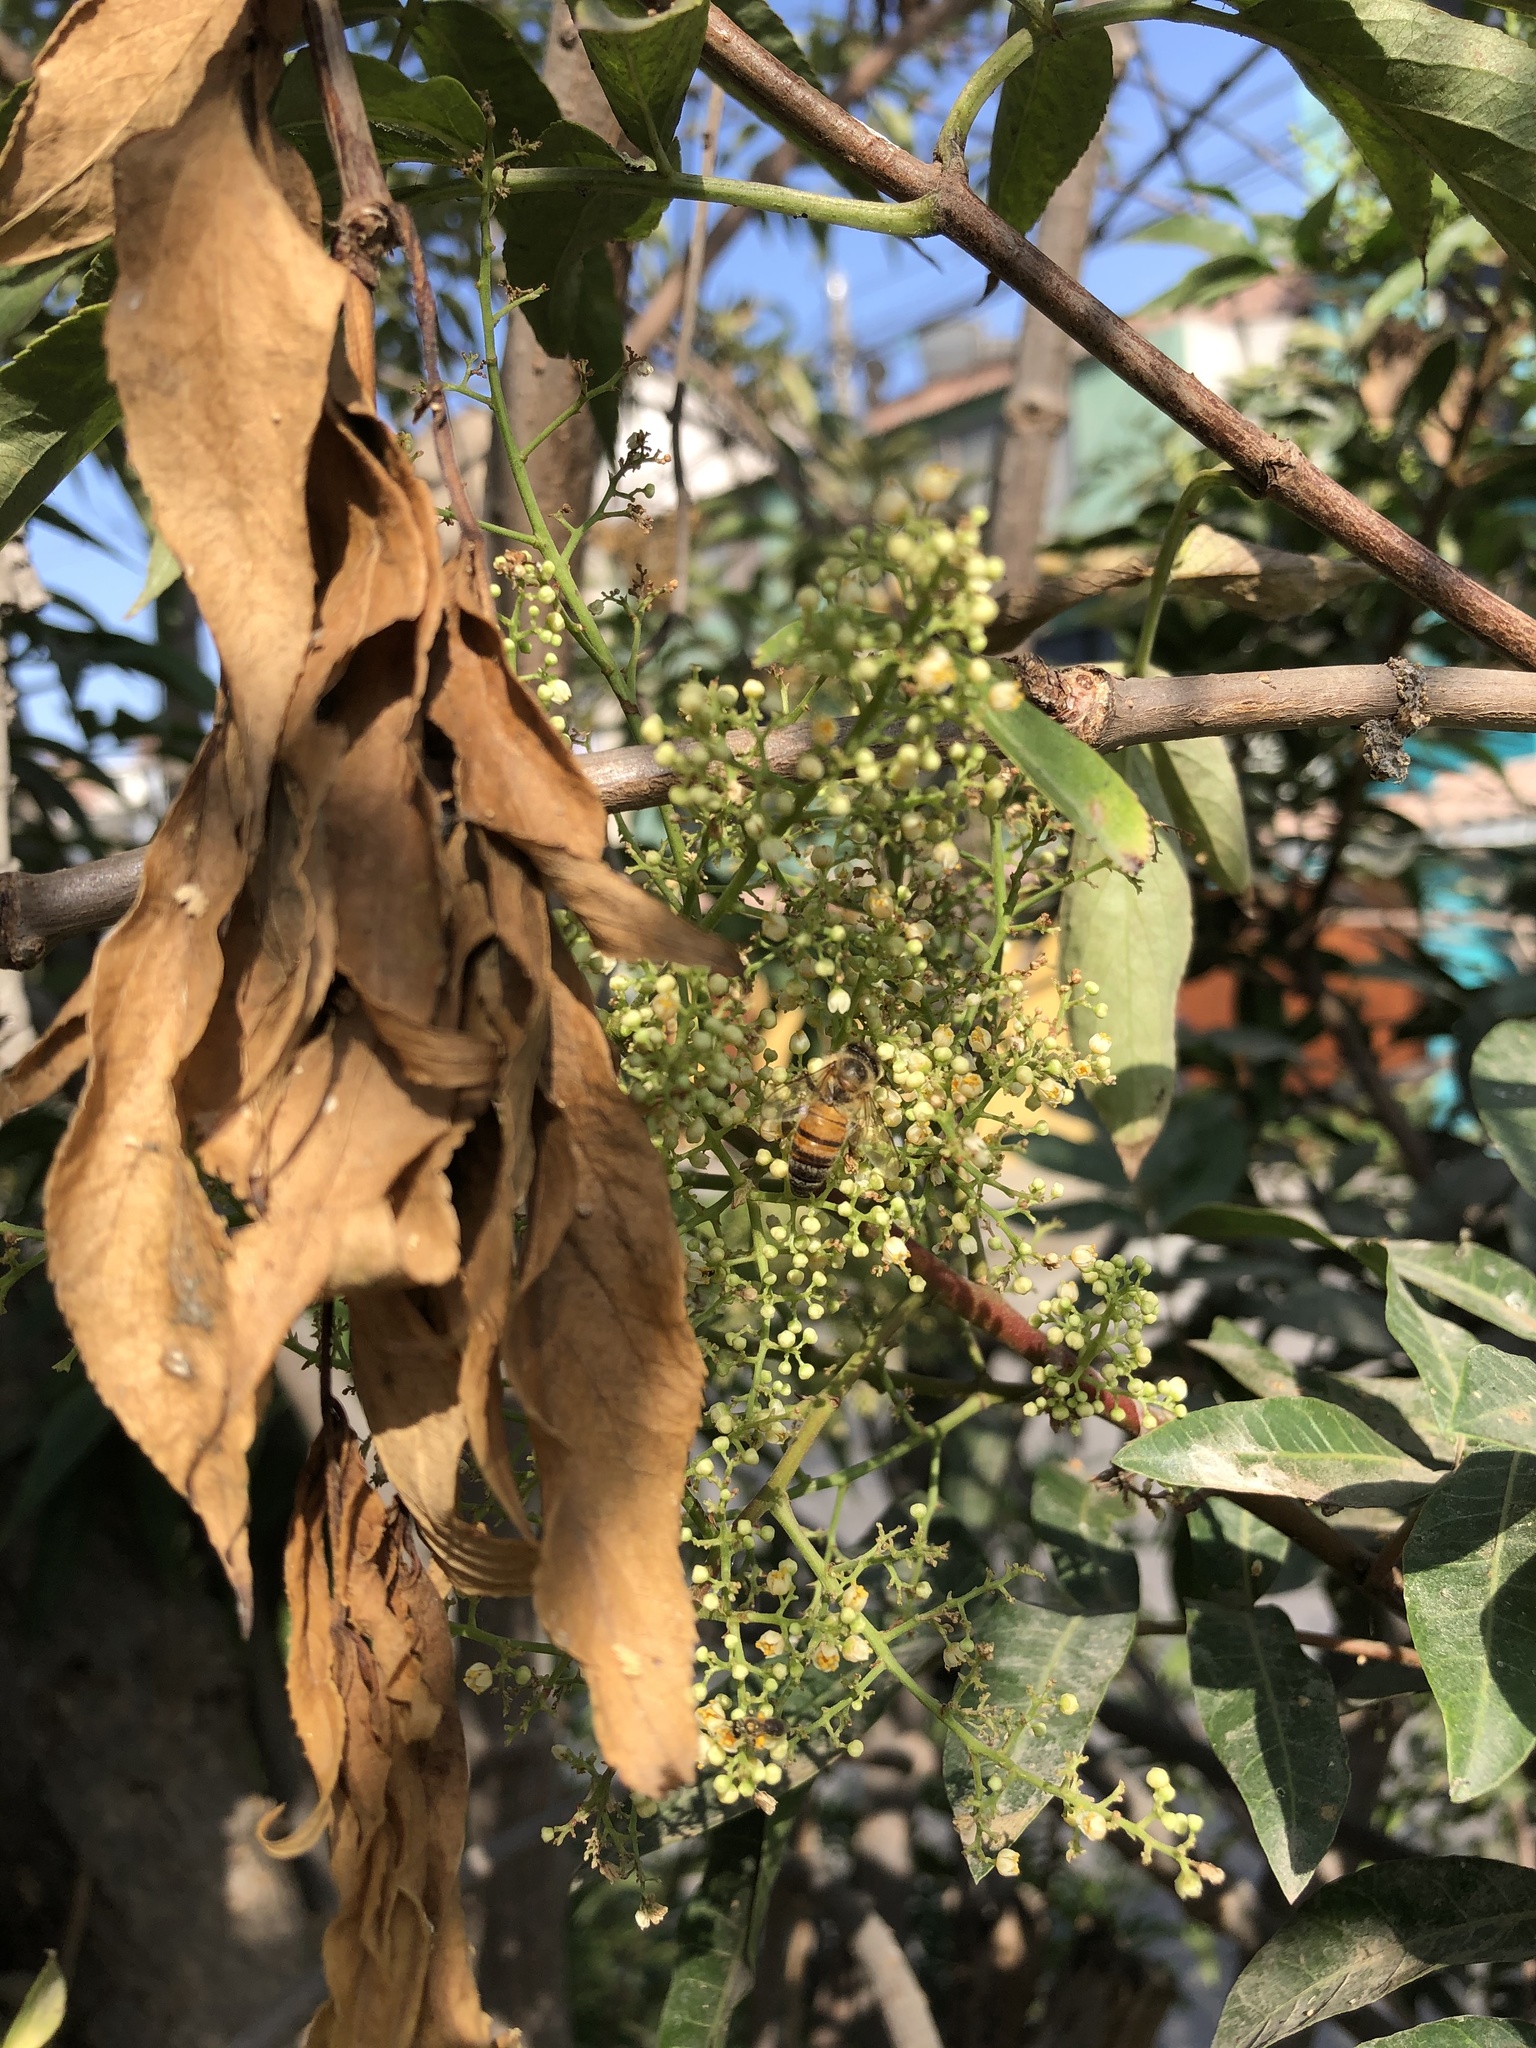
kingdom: Animalia
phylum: Arthropoda
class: Insecta
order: Hymenoptera
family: Apidae
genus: Apis
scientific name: Apis mellifera
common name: Honey bee
